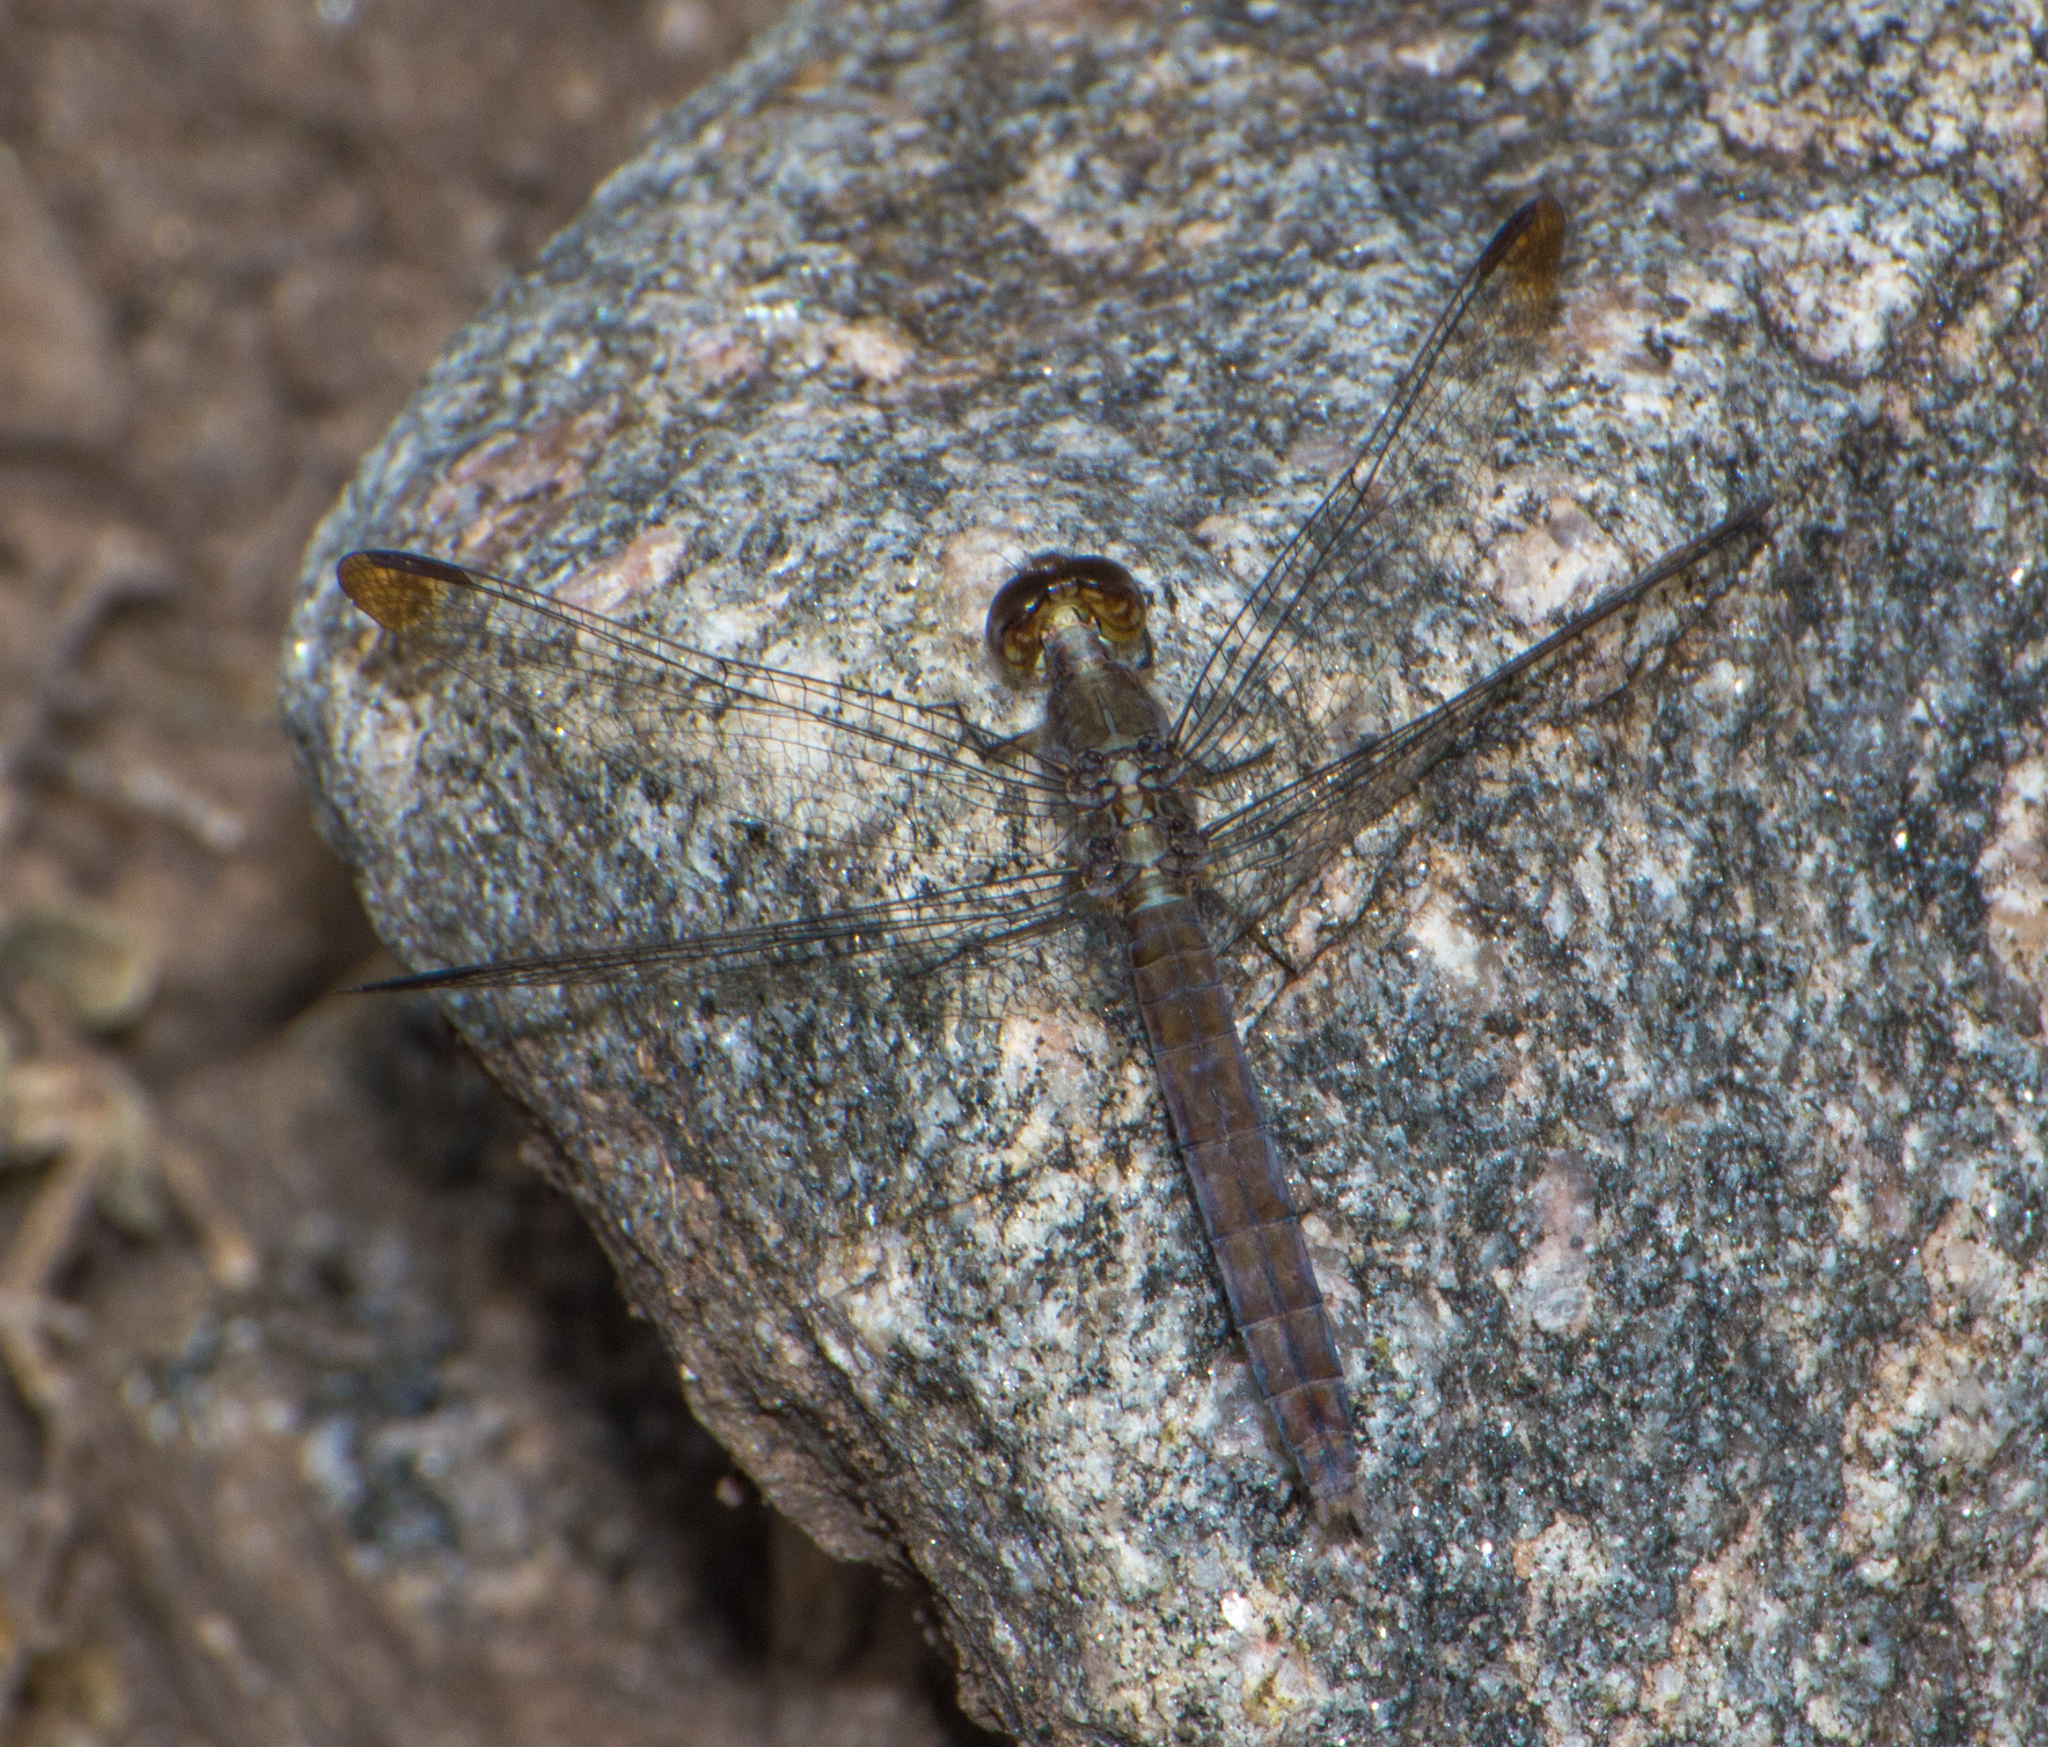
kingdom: Animalia
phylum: Arthropoda
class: Insecta
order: Odonata
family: Libellulidae
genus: Erythrodiplax
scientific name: Erythrodiplax atroterminata
